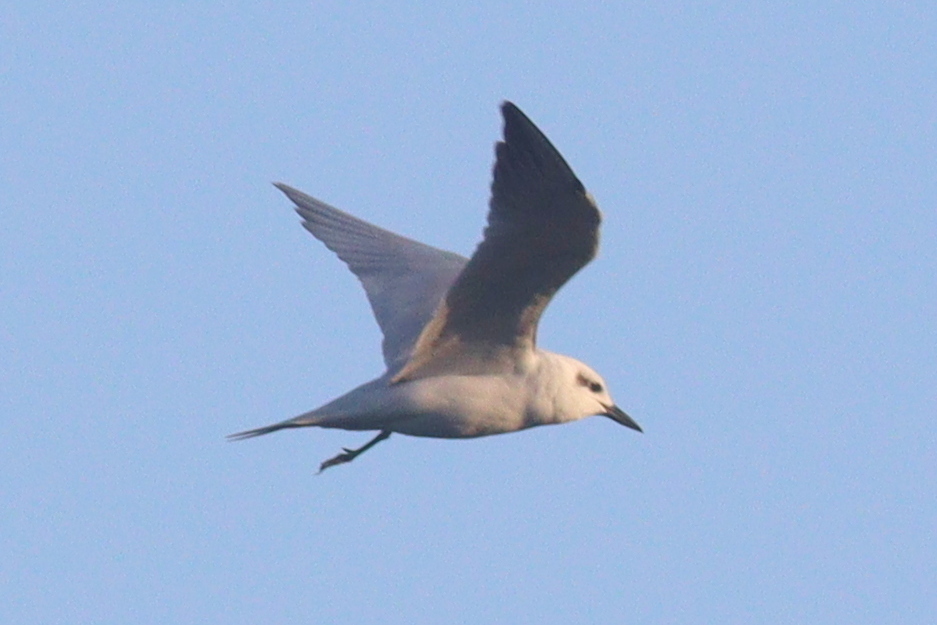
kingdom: Animalia
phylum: Chordata
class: Aves
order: Charadriiformes
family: Laridae
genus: Gelochelidon
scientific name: Gelochelidon nilotica
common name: Gull-billed tern
